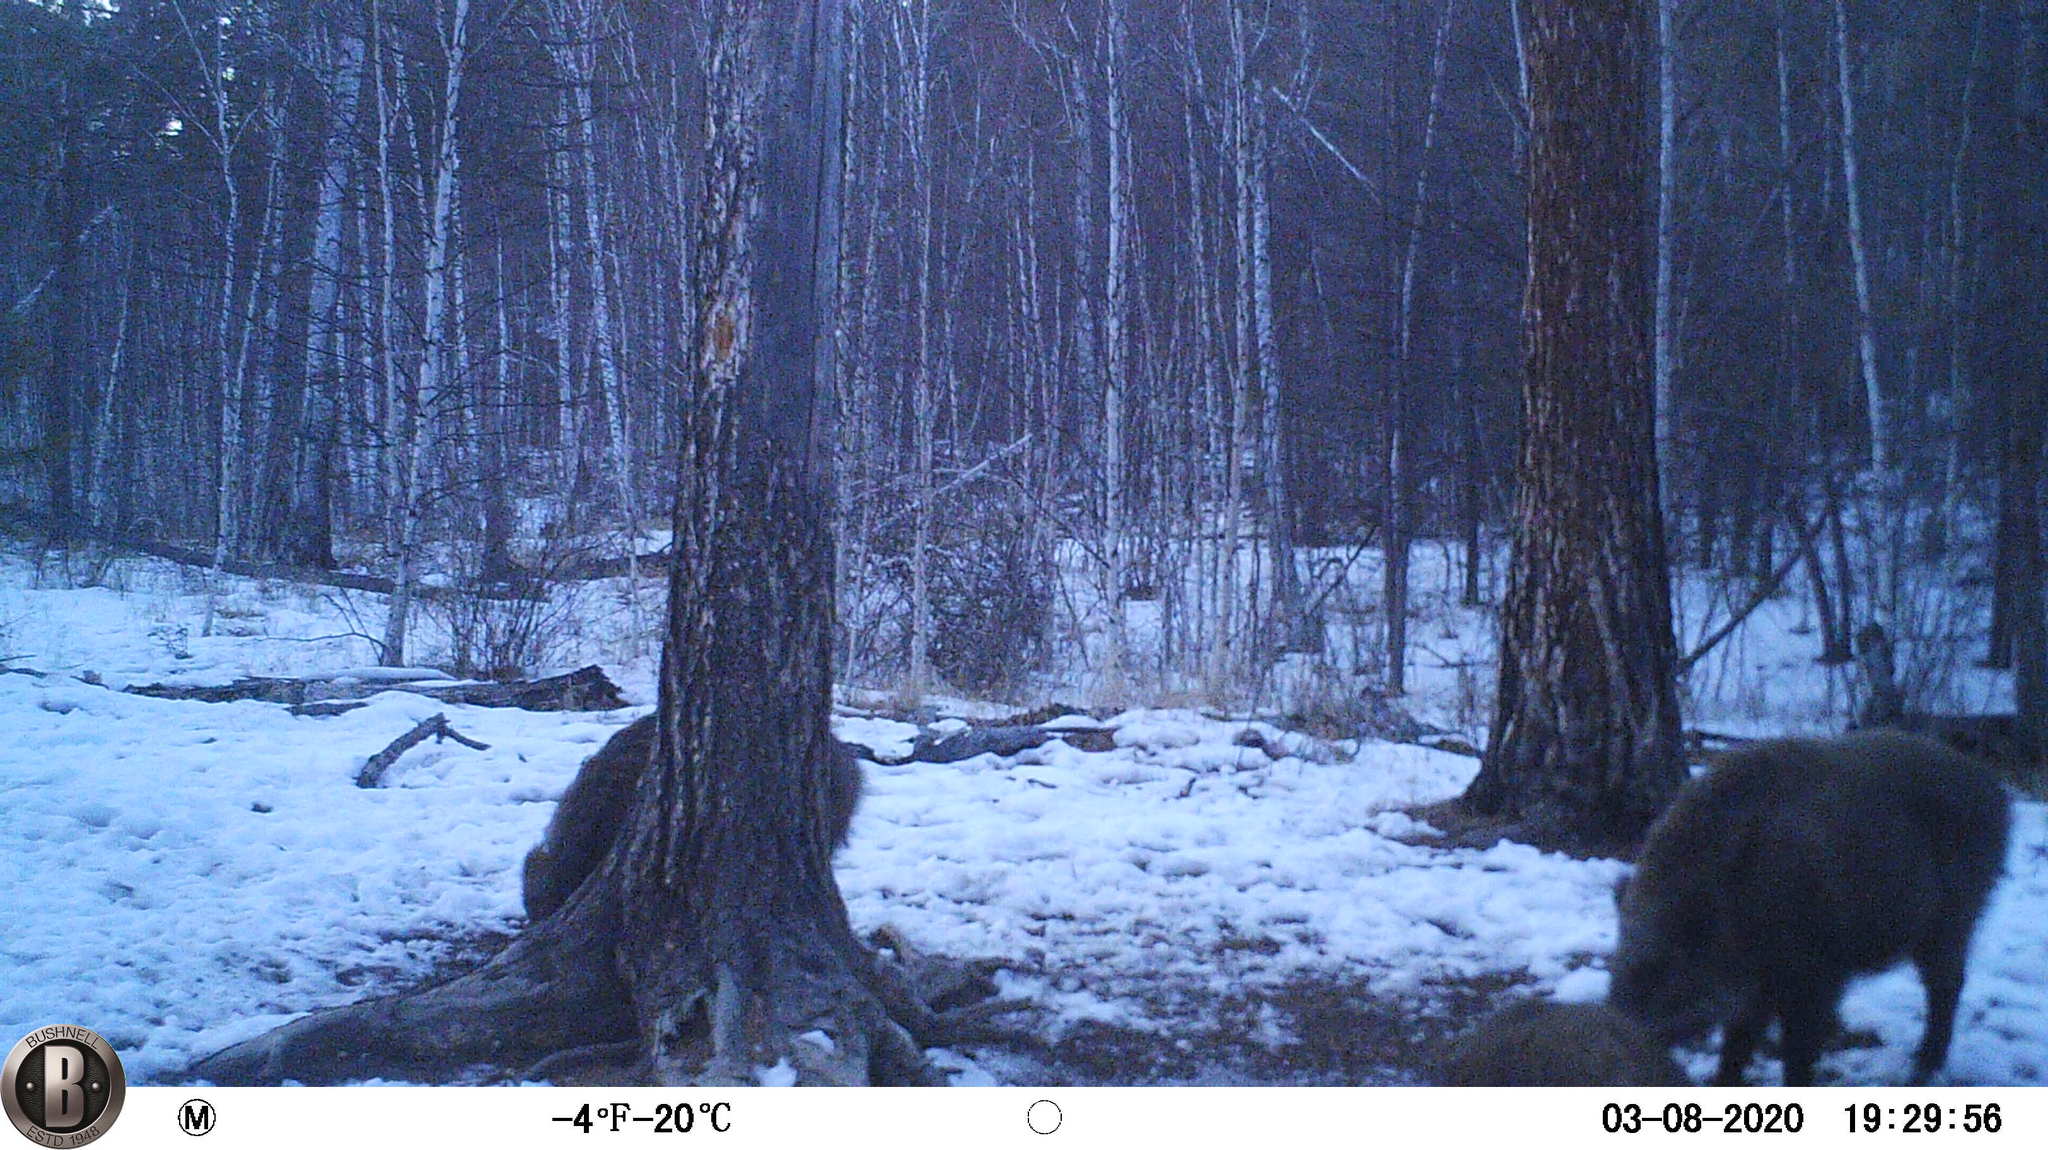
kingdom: Animalia
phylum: Chordata
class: Mammalia
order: Artiodactyla
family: Suidae
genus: Sus
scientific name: Sus scrofa
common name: Wild boar
